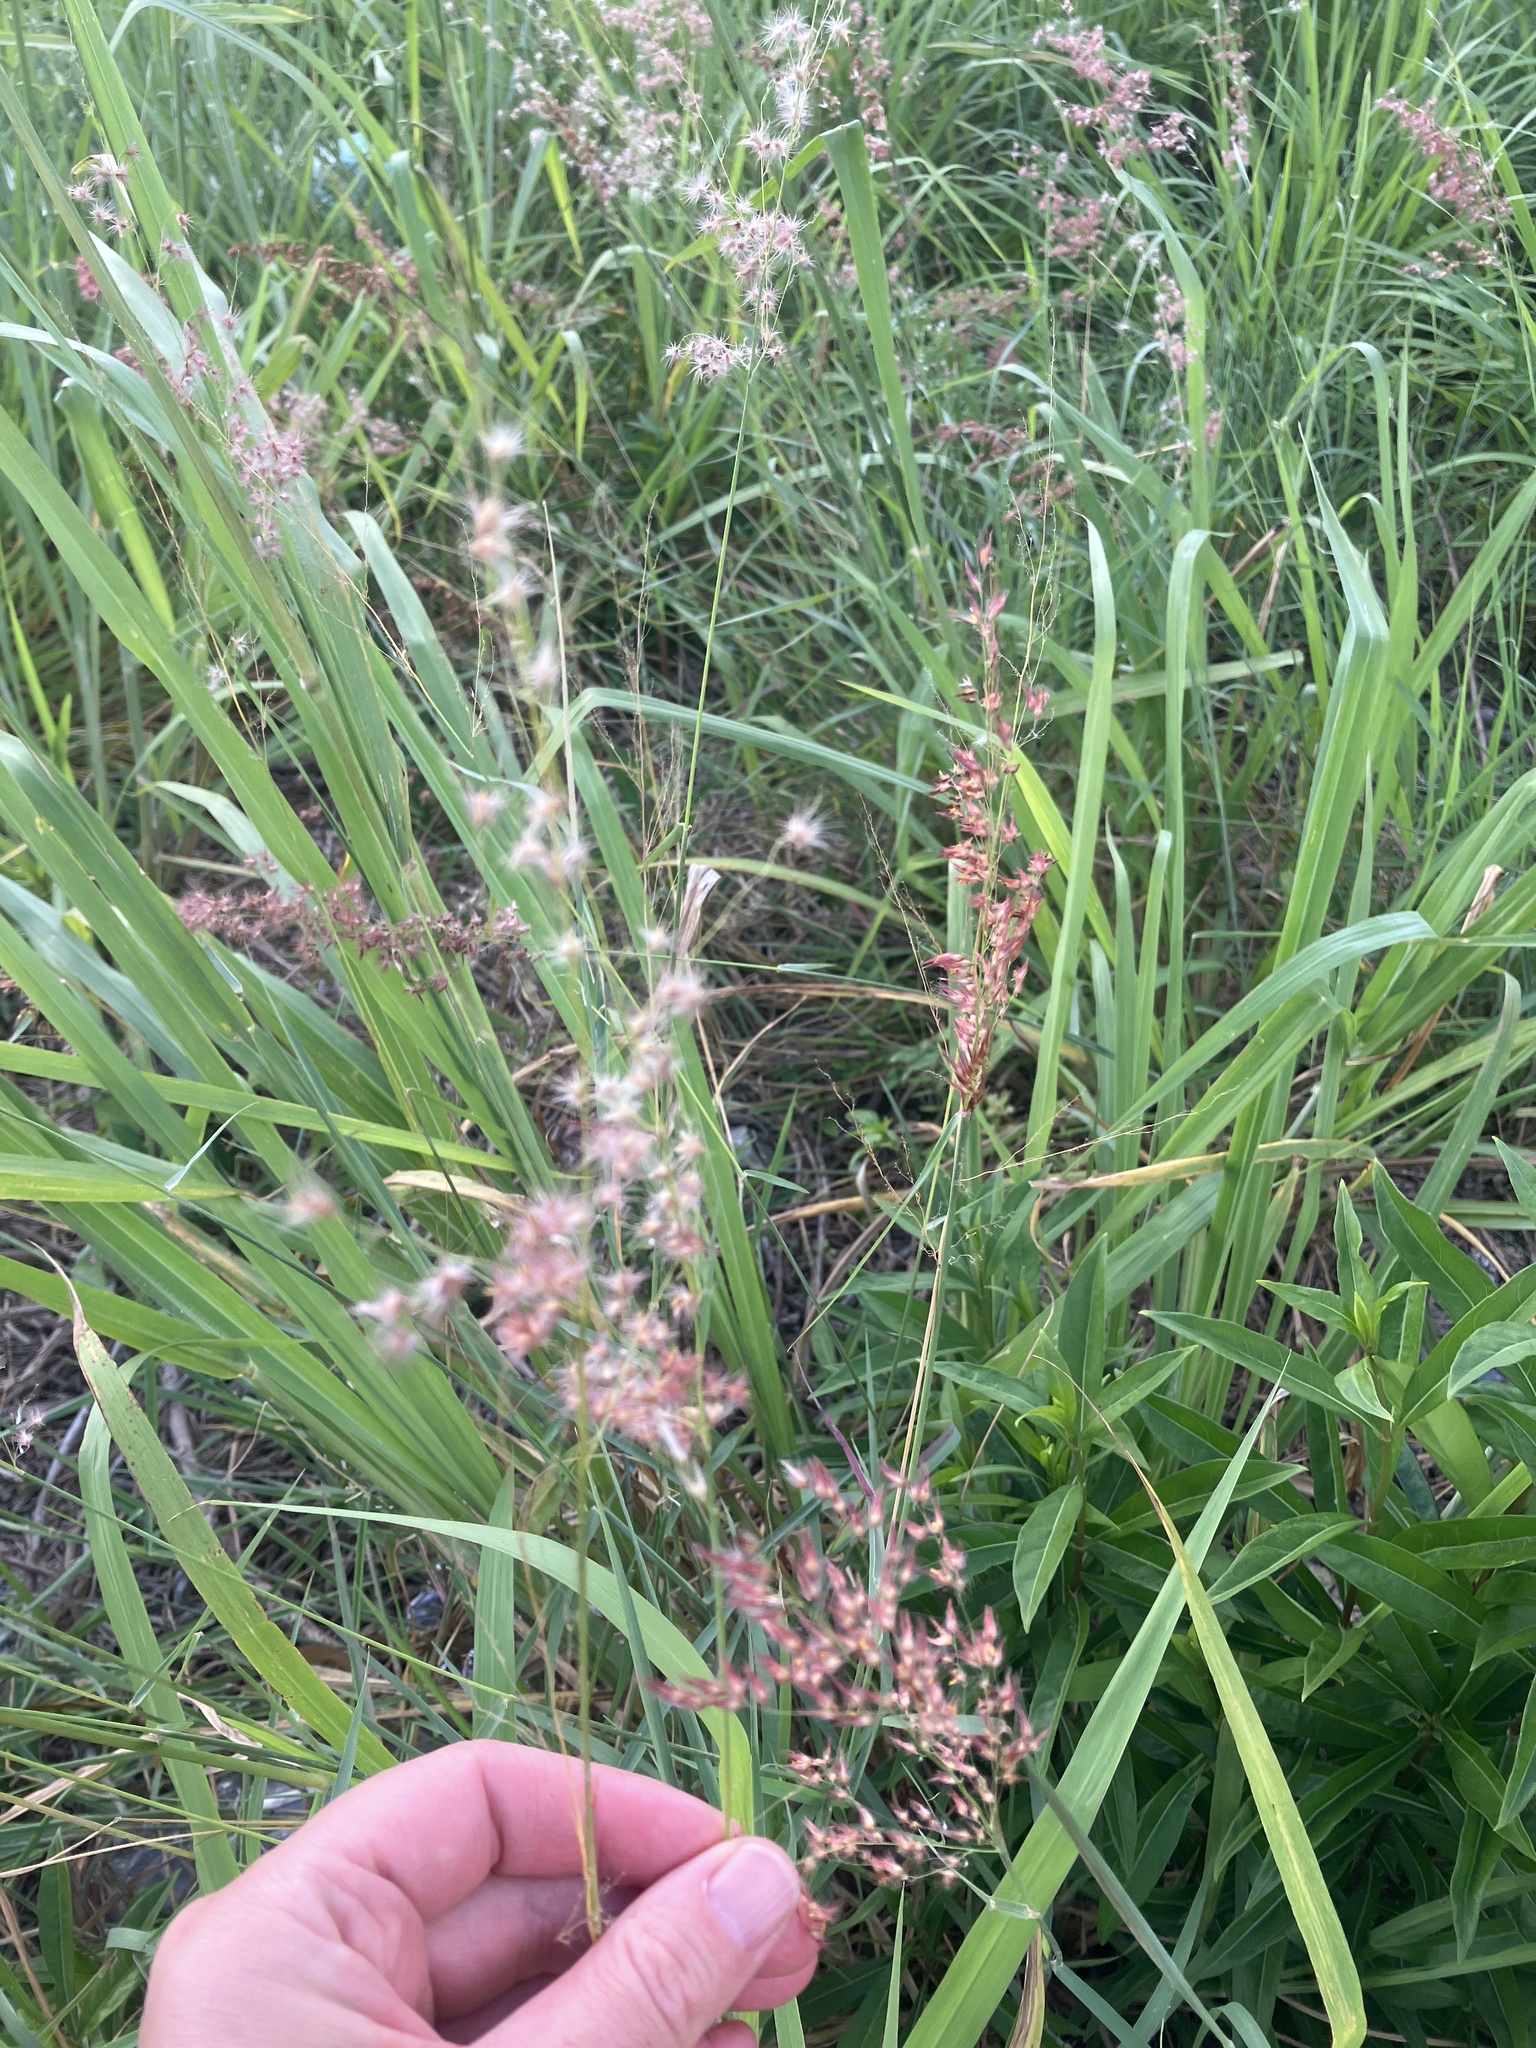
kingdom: Plantae
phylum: Tracheophyta
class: Liliopsida
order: Poales
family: Poaceae
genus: Melinis
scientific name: Melinis repens
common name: Rose natal grass
